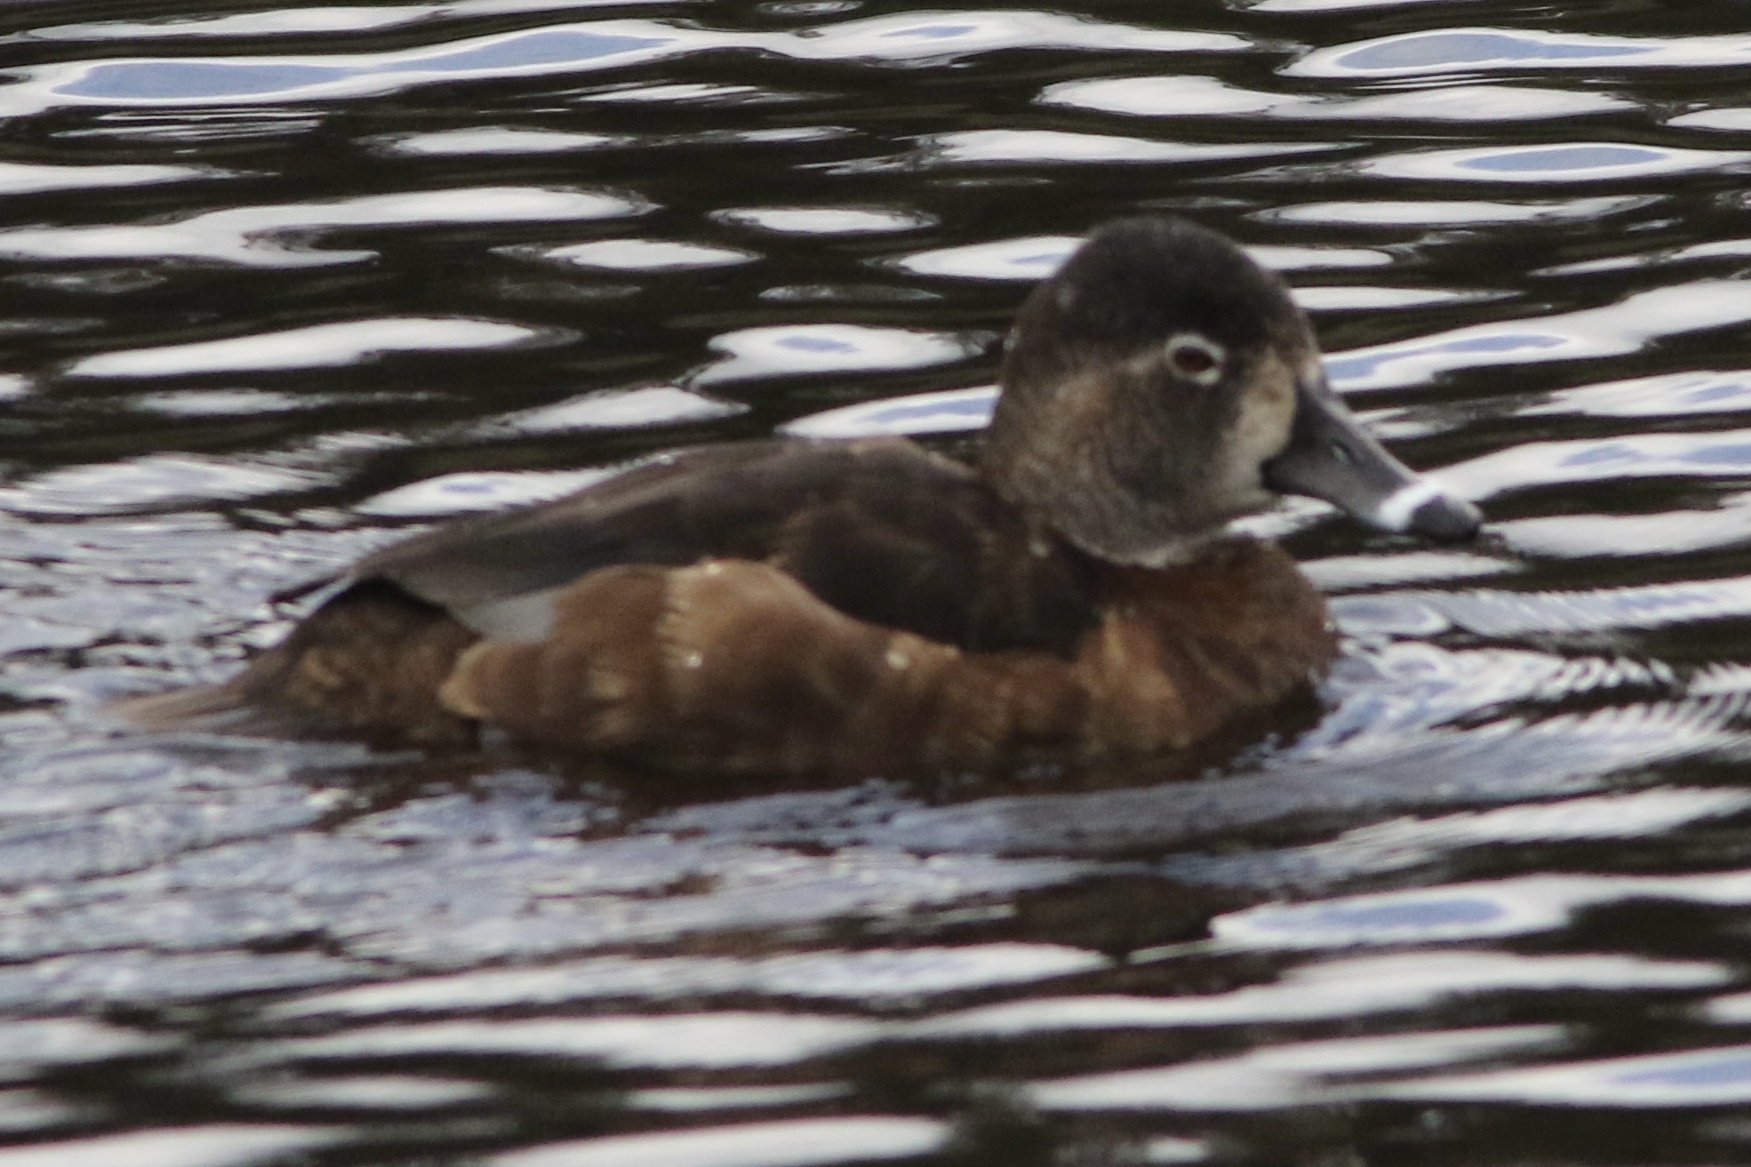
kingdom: Animalia
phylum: Chordata
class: Aves
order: Anseriformes
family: Anatidae
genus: Aythya
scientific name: Aythya collaris
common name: Ring-necked duck
